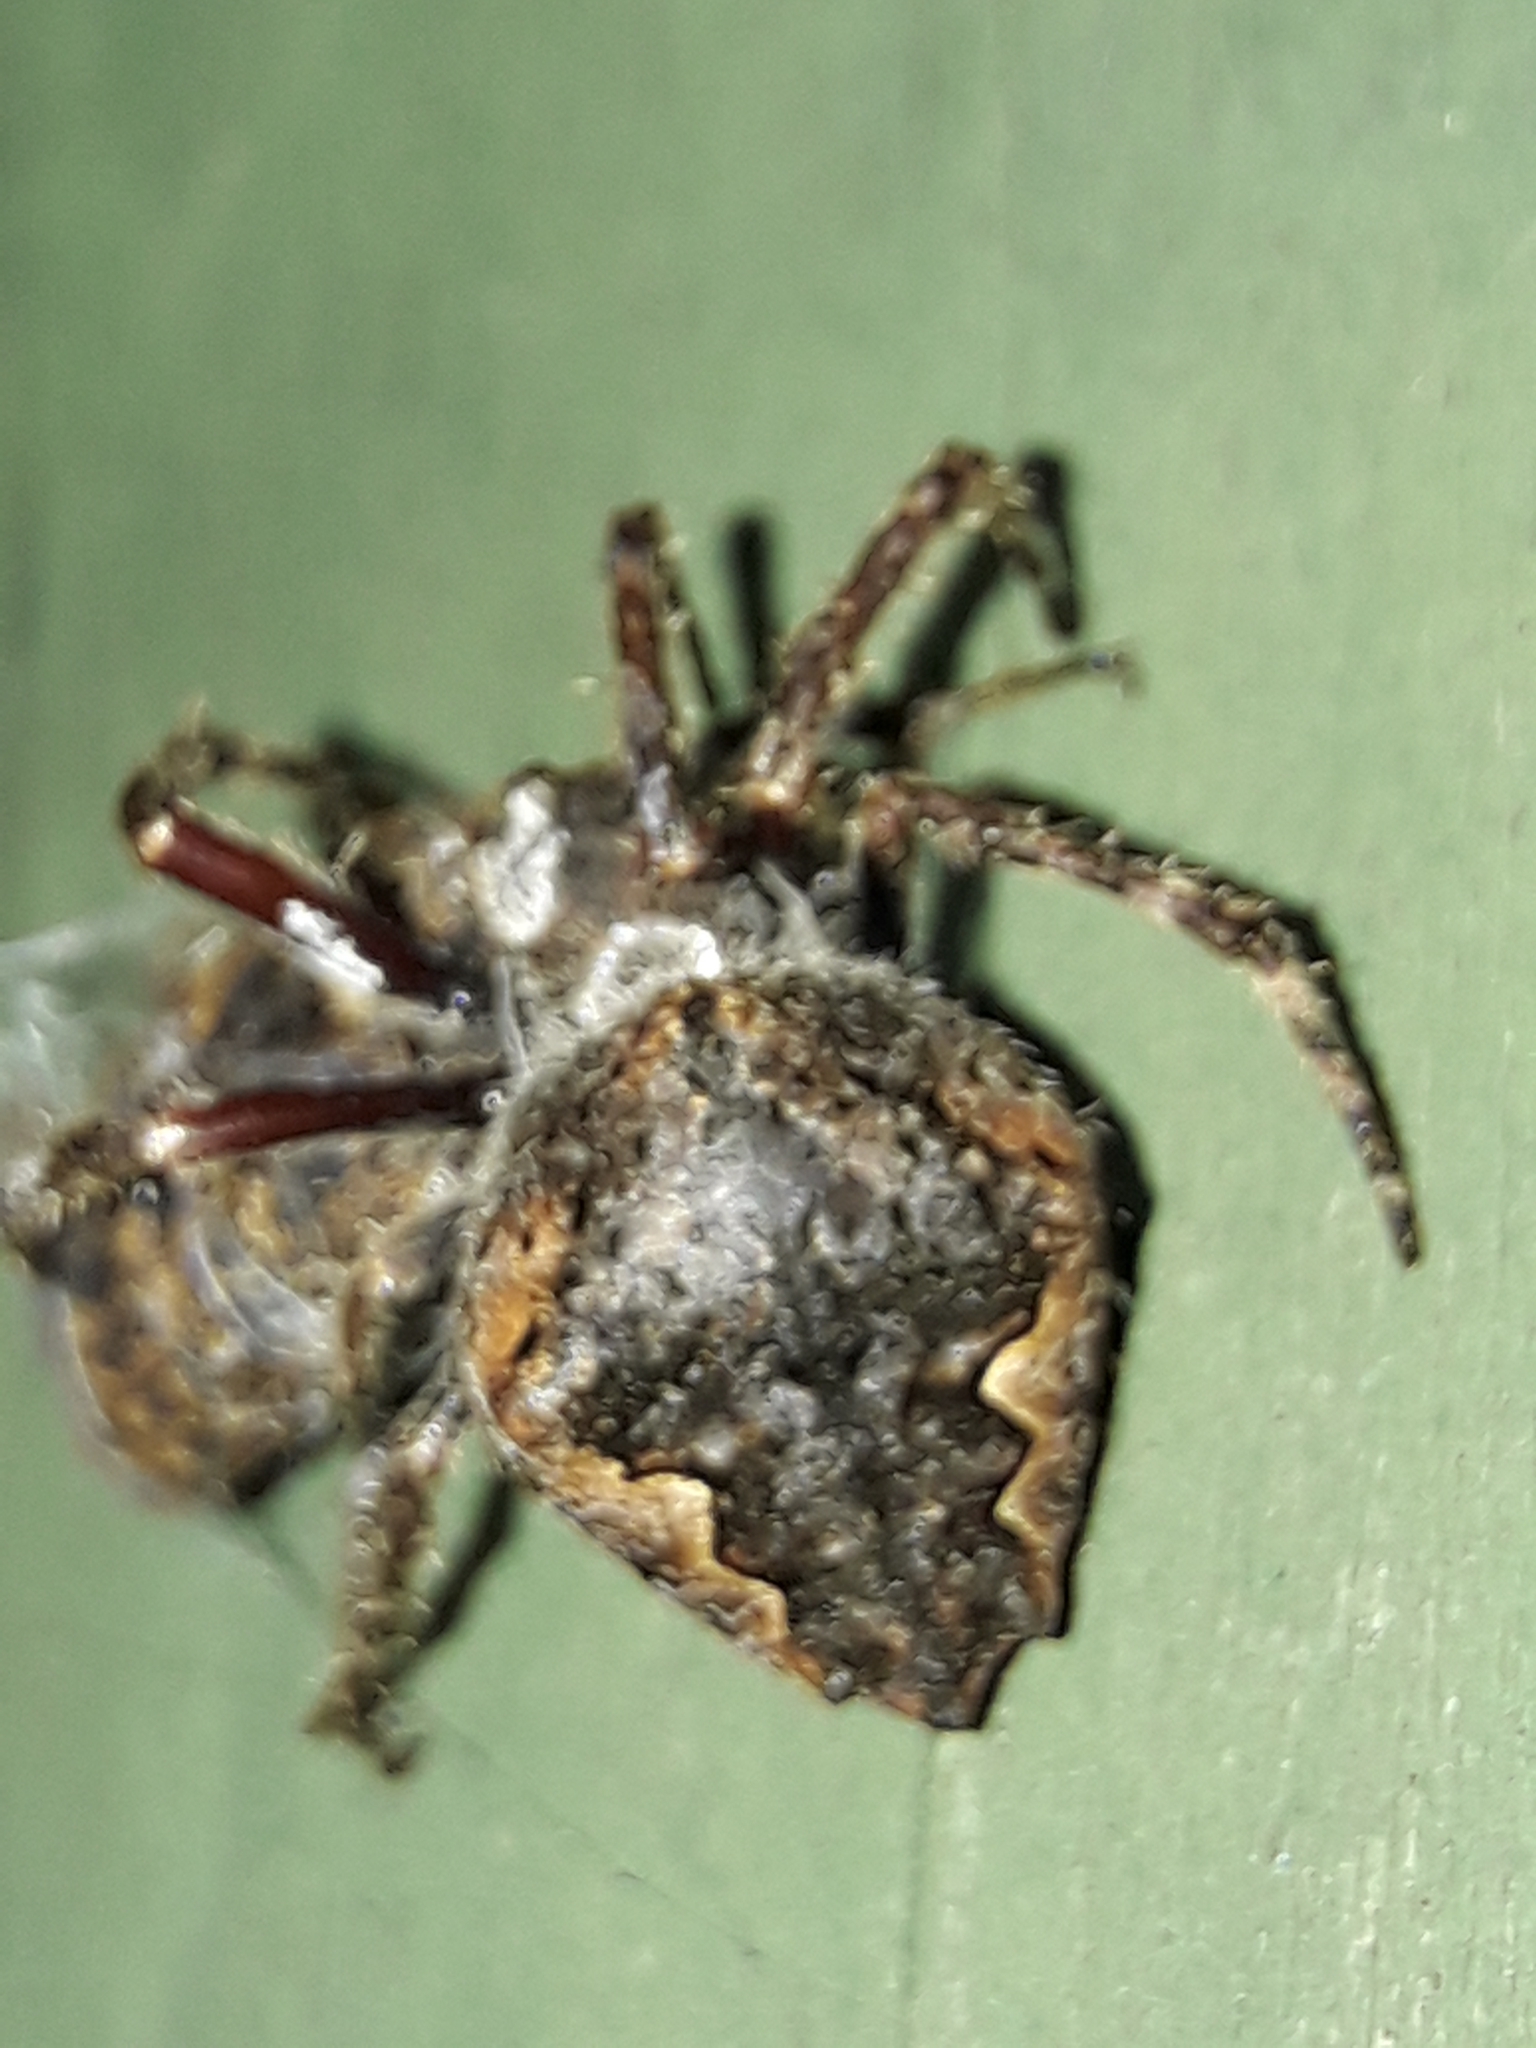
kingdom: Animalia
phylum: Arthropoda
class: Arachnida
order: Araneae
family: Araneidae
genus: Eriophora
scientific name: Eriophora pustulosa
